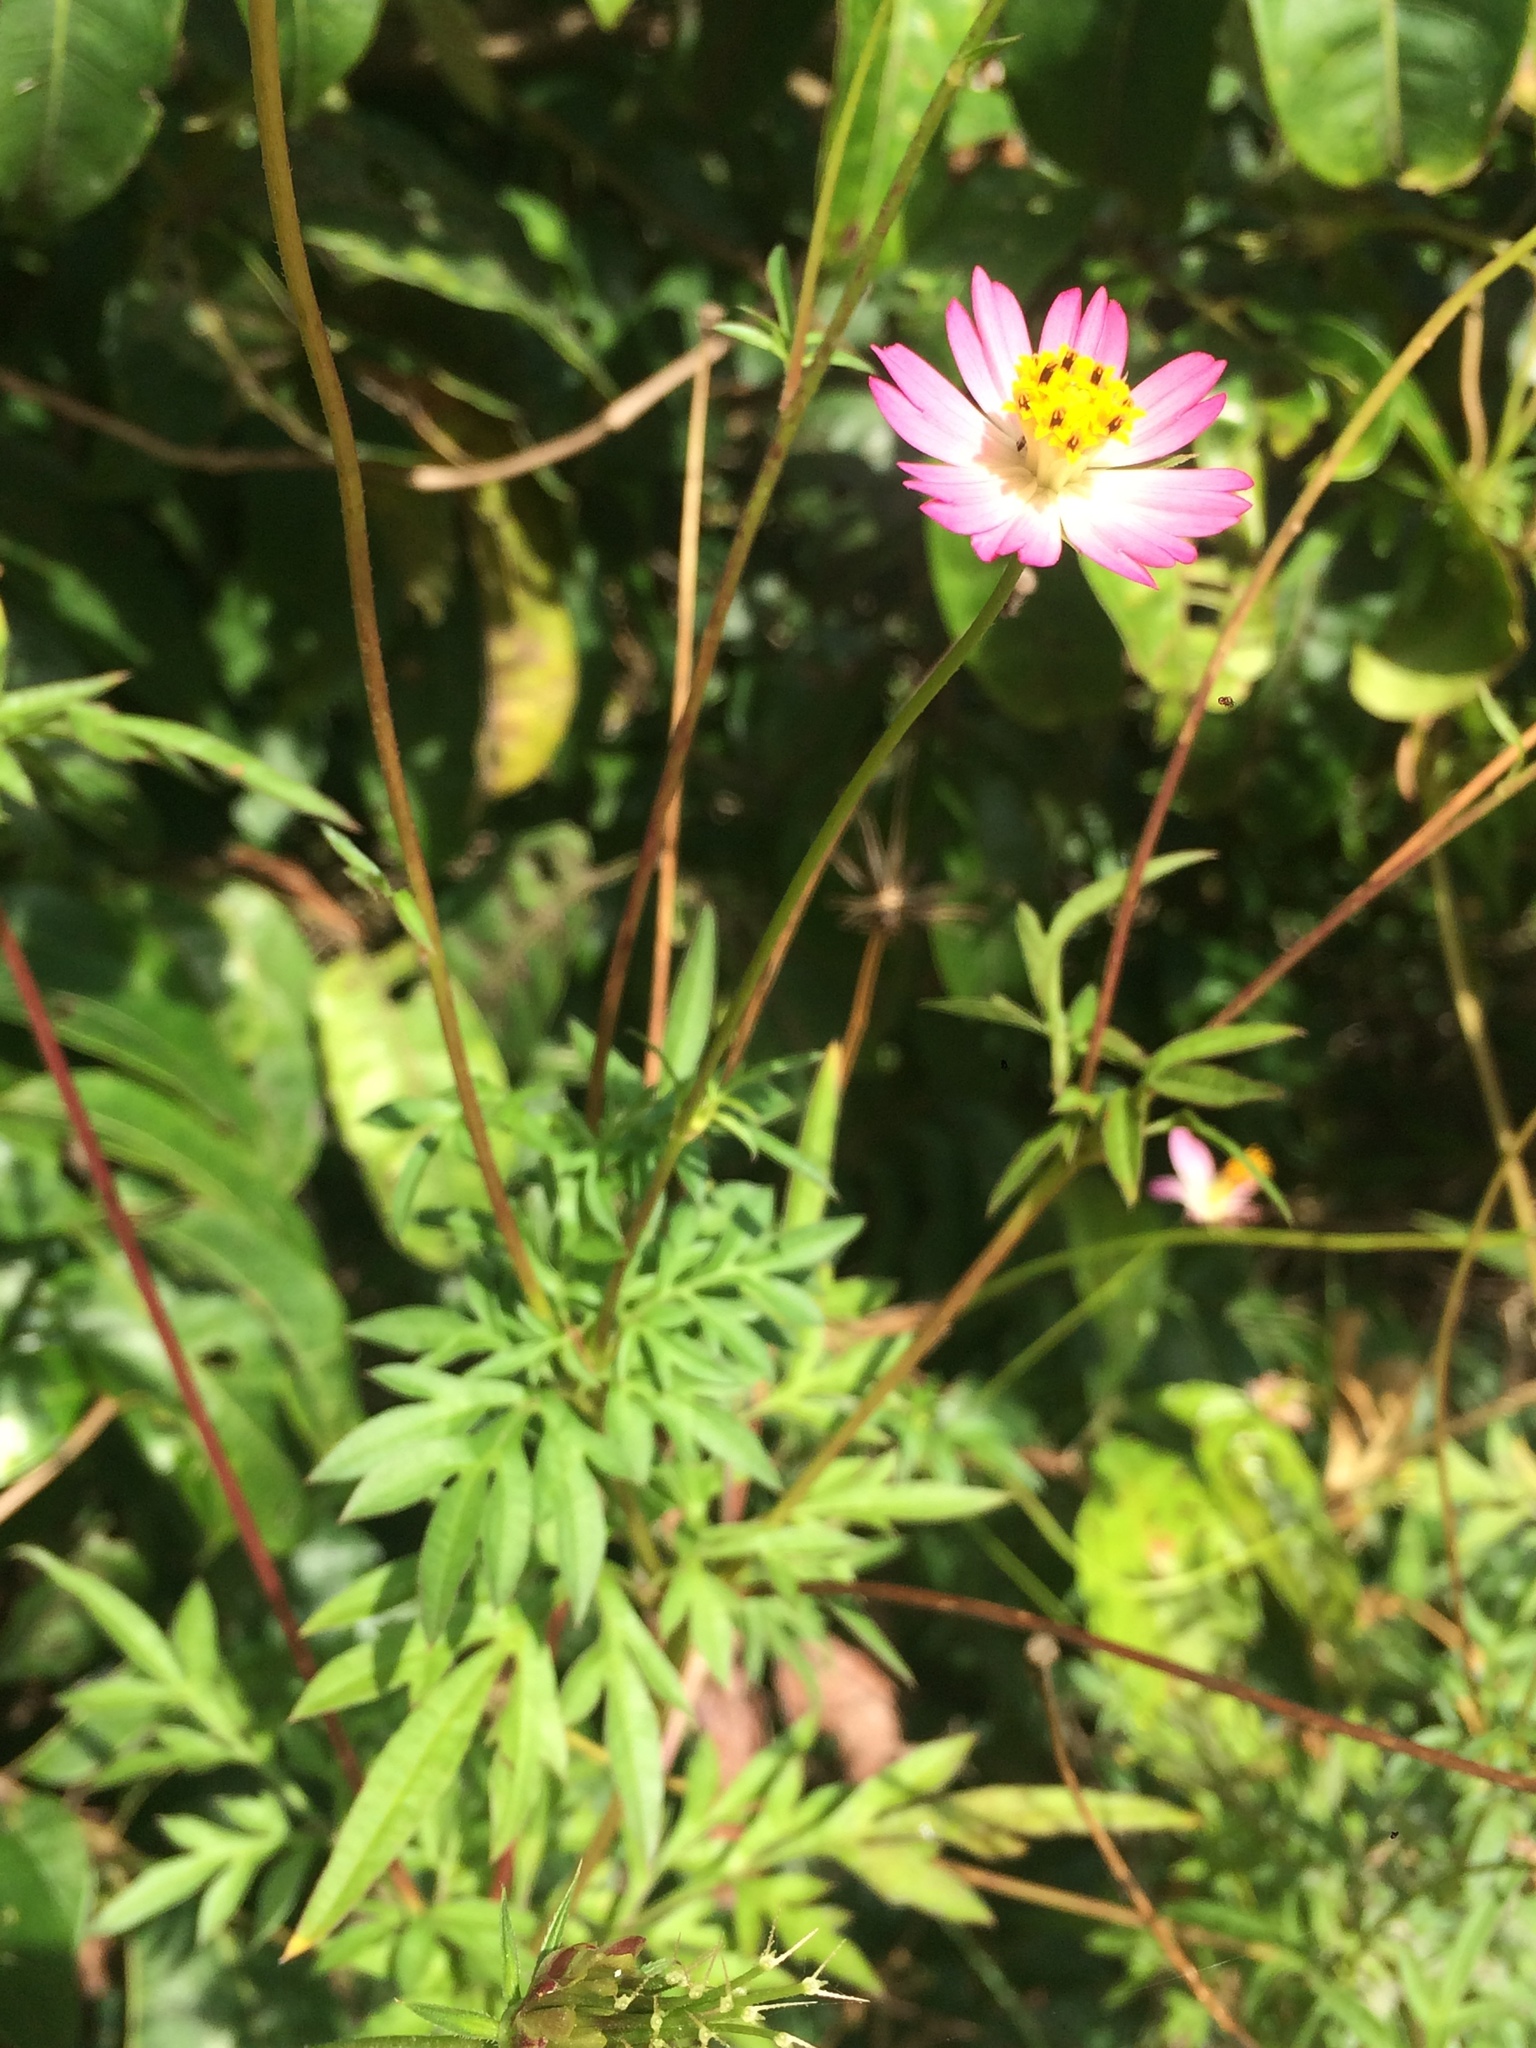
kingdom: Plantae
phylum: Tracheophyta
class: Magnoliopsida
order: Asterales
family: Asteraceae
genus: Cosmos
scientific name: Cosmos caudatus
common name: Wild cosmos
